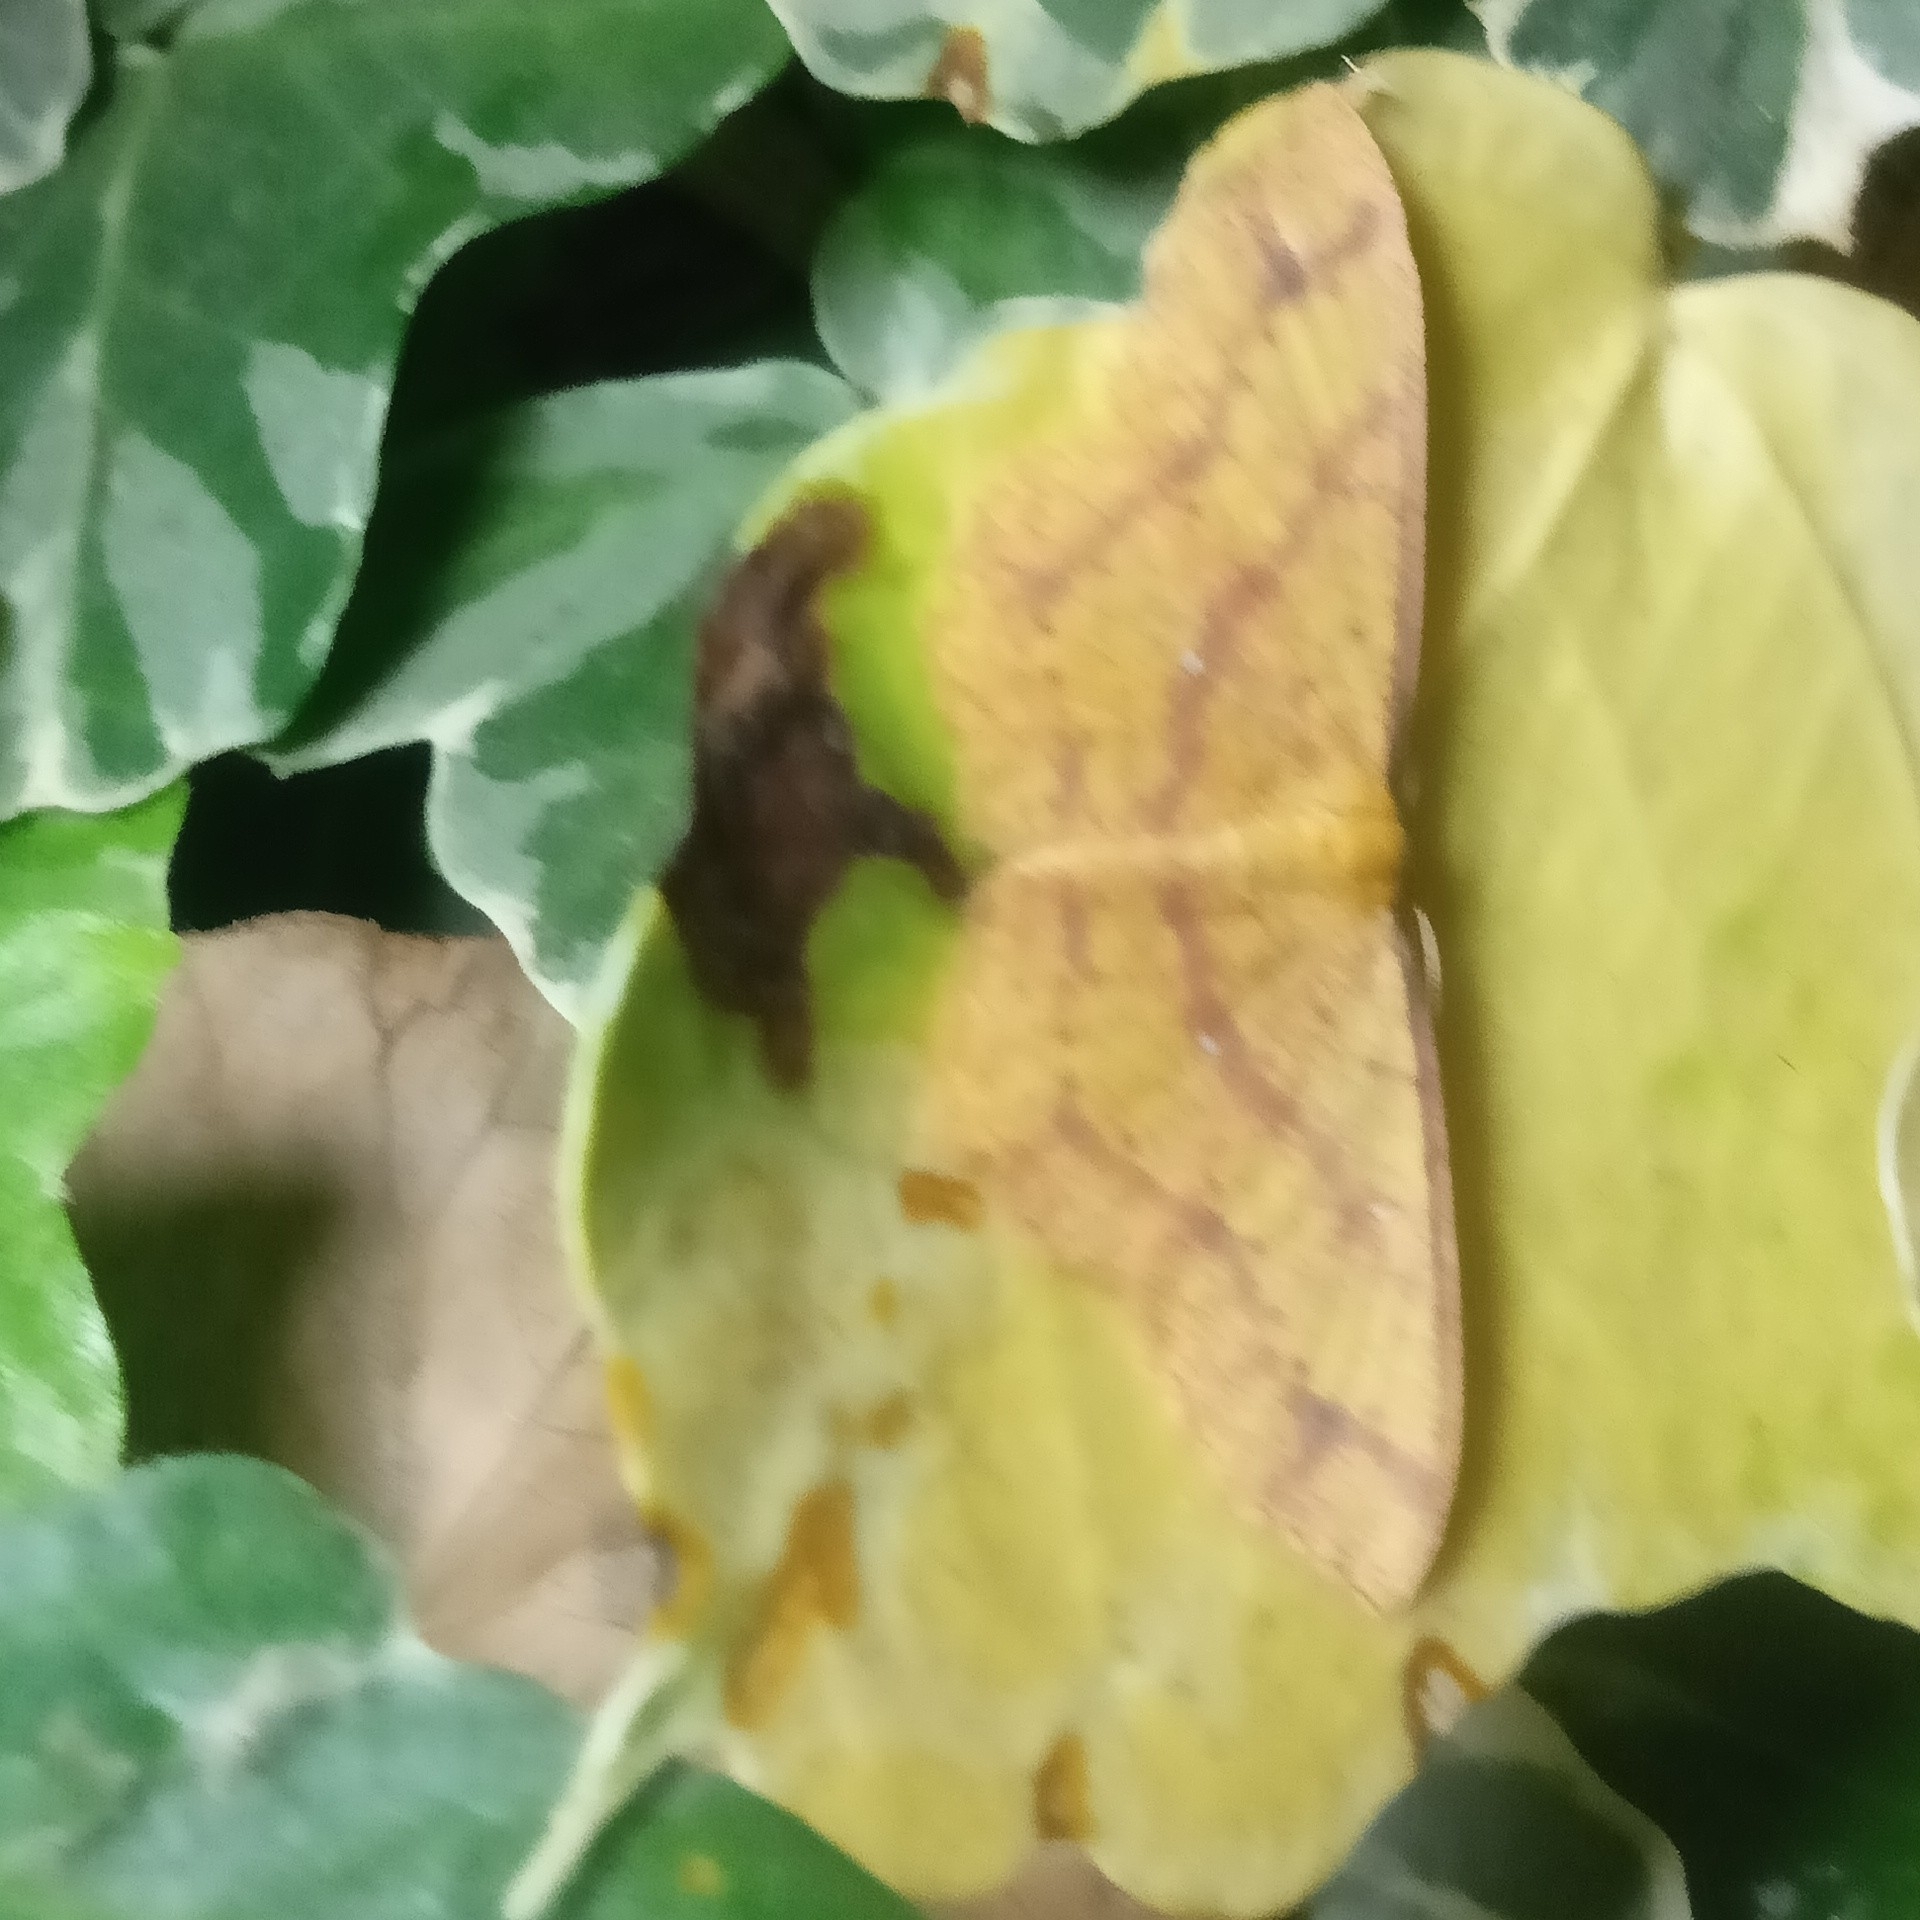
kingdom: Animalia
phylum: Arthropoda
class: Insecta
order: Lepidoptera
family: Geometridae
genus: Synegiodes
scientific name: Synegiodes hyriaria
